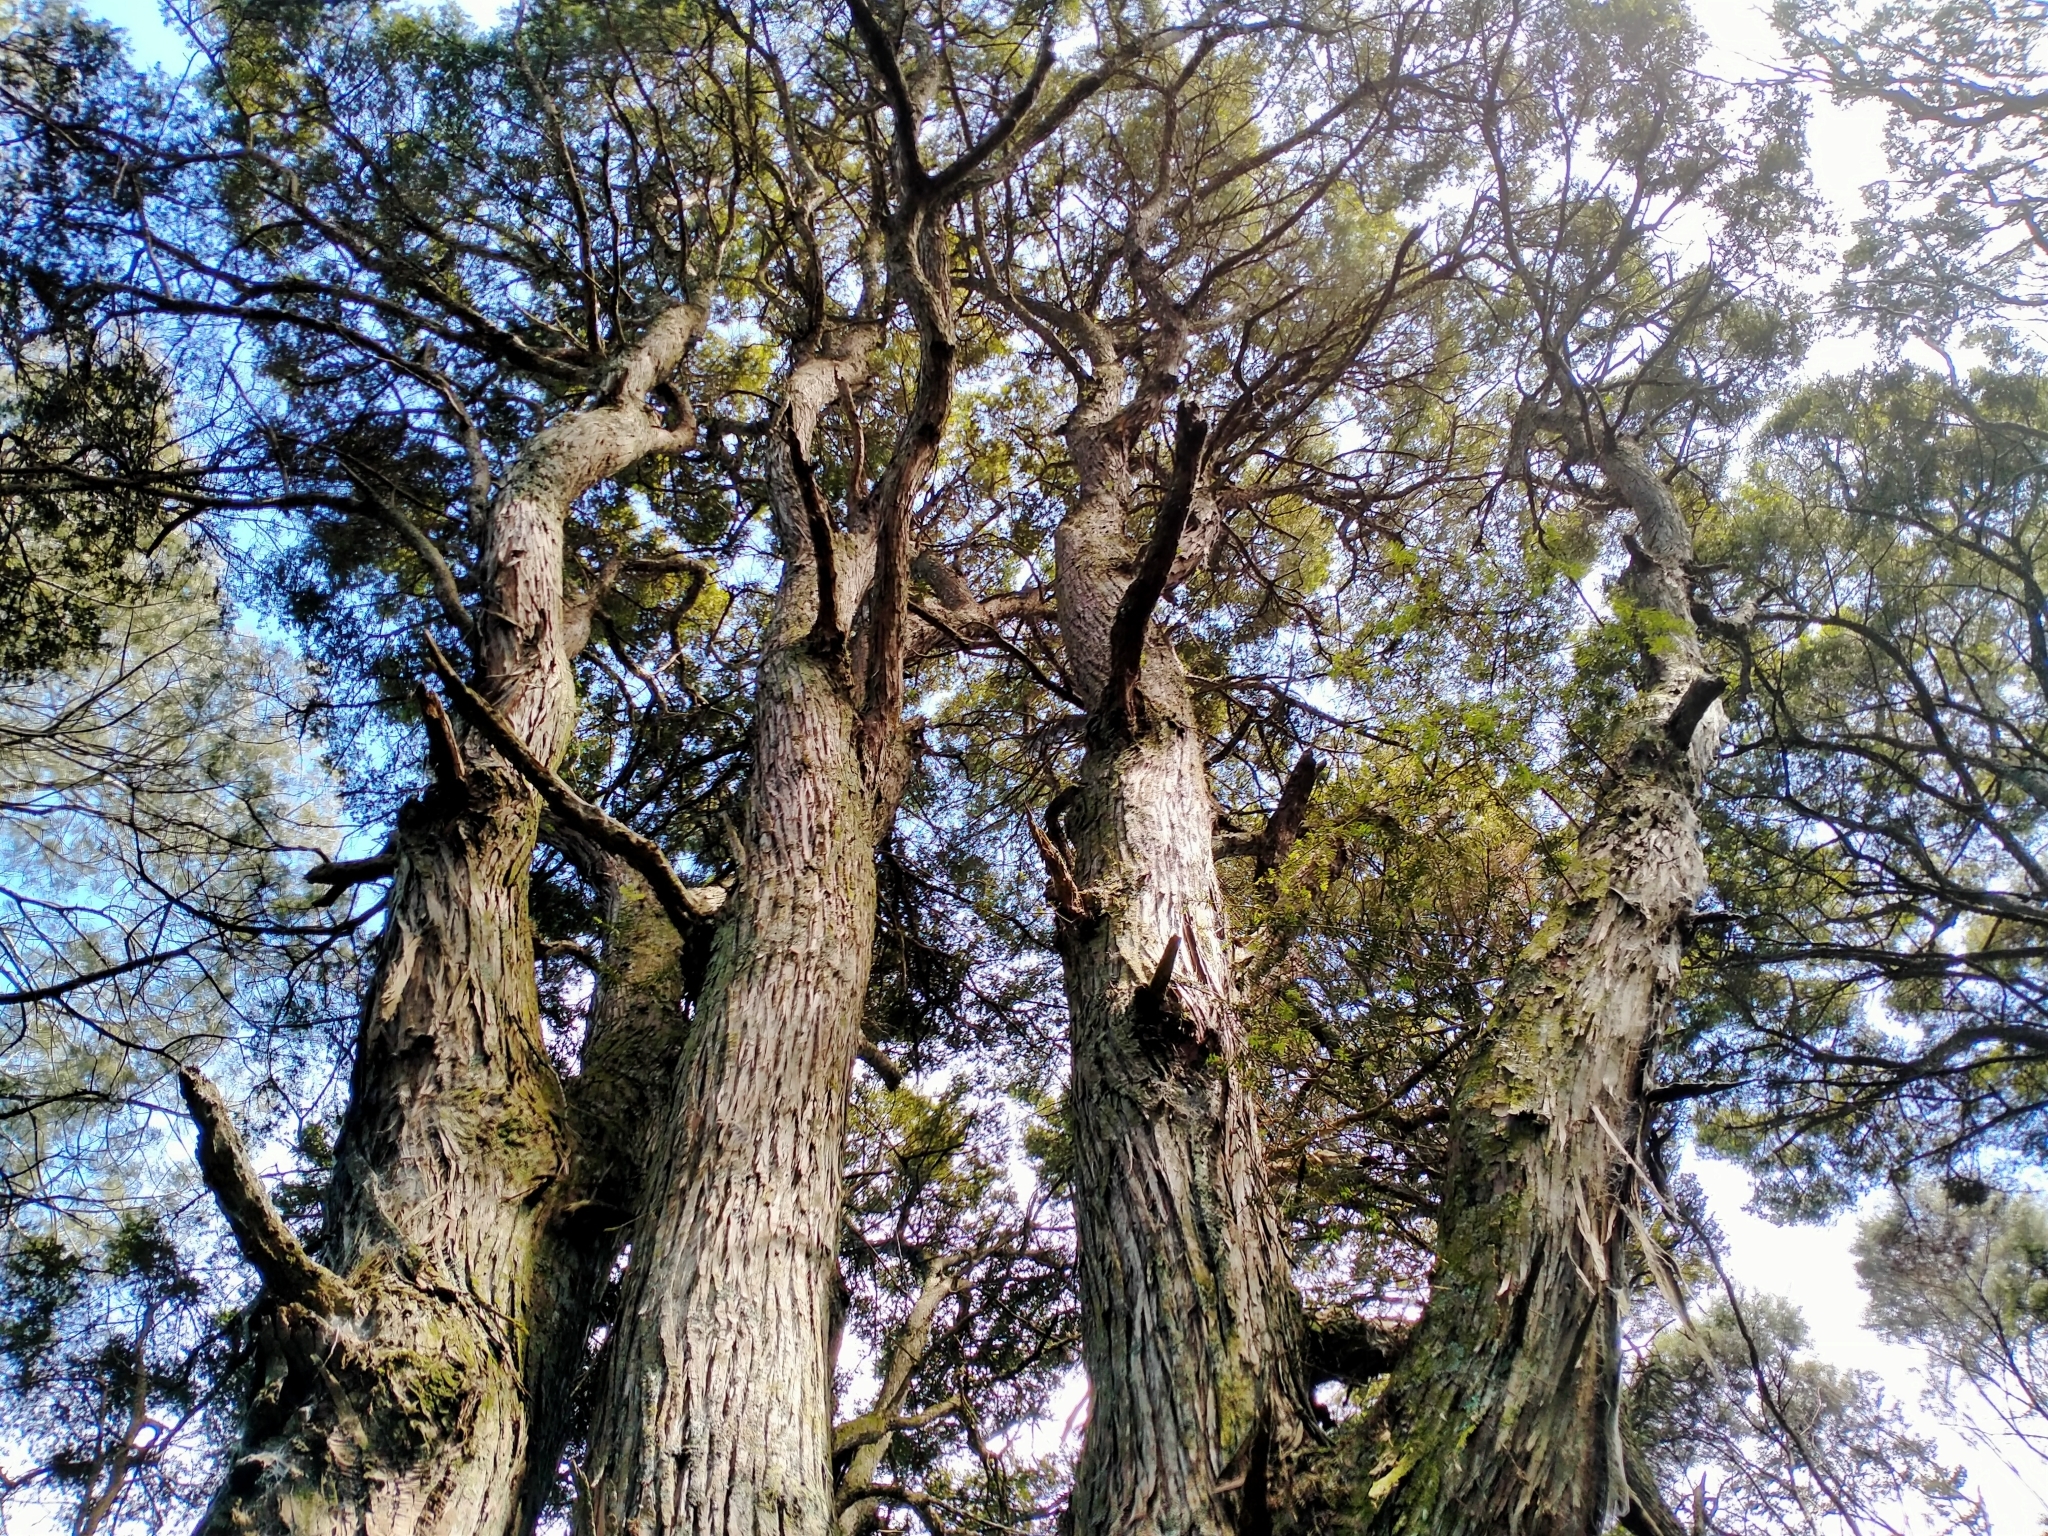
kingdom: Plantae
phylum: Tracheophyta
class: Pinopsida
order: Pinales
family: Podocarpaceae
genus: Podocarpus
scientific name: Podocarpus totara
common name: Totara
